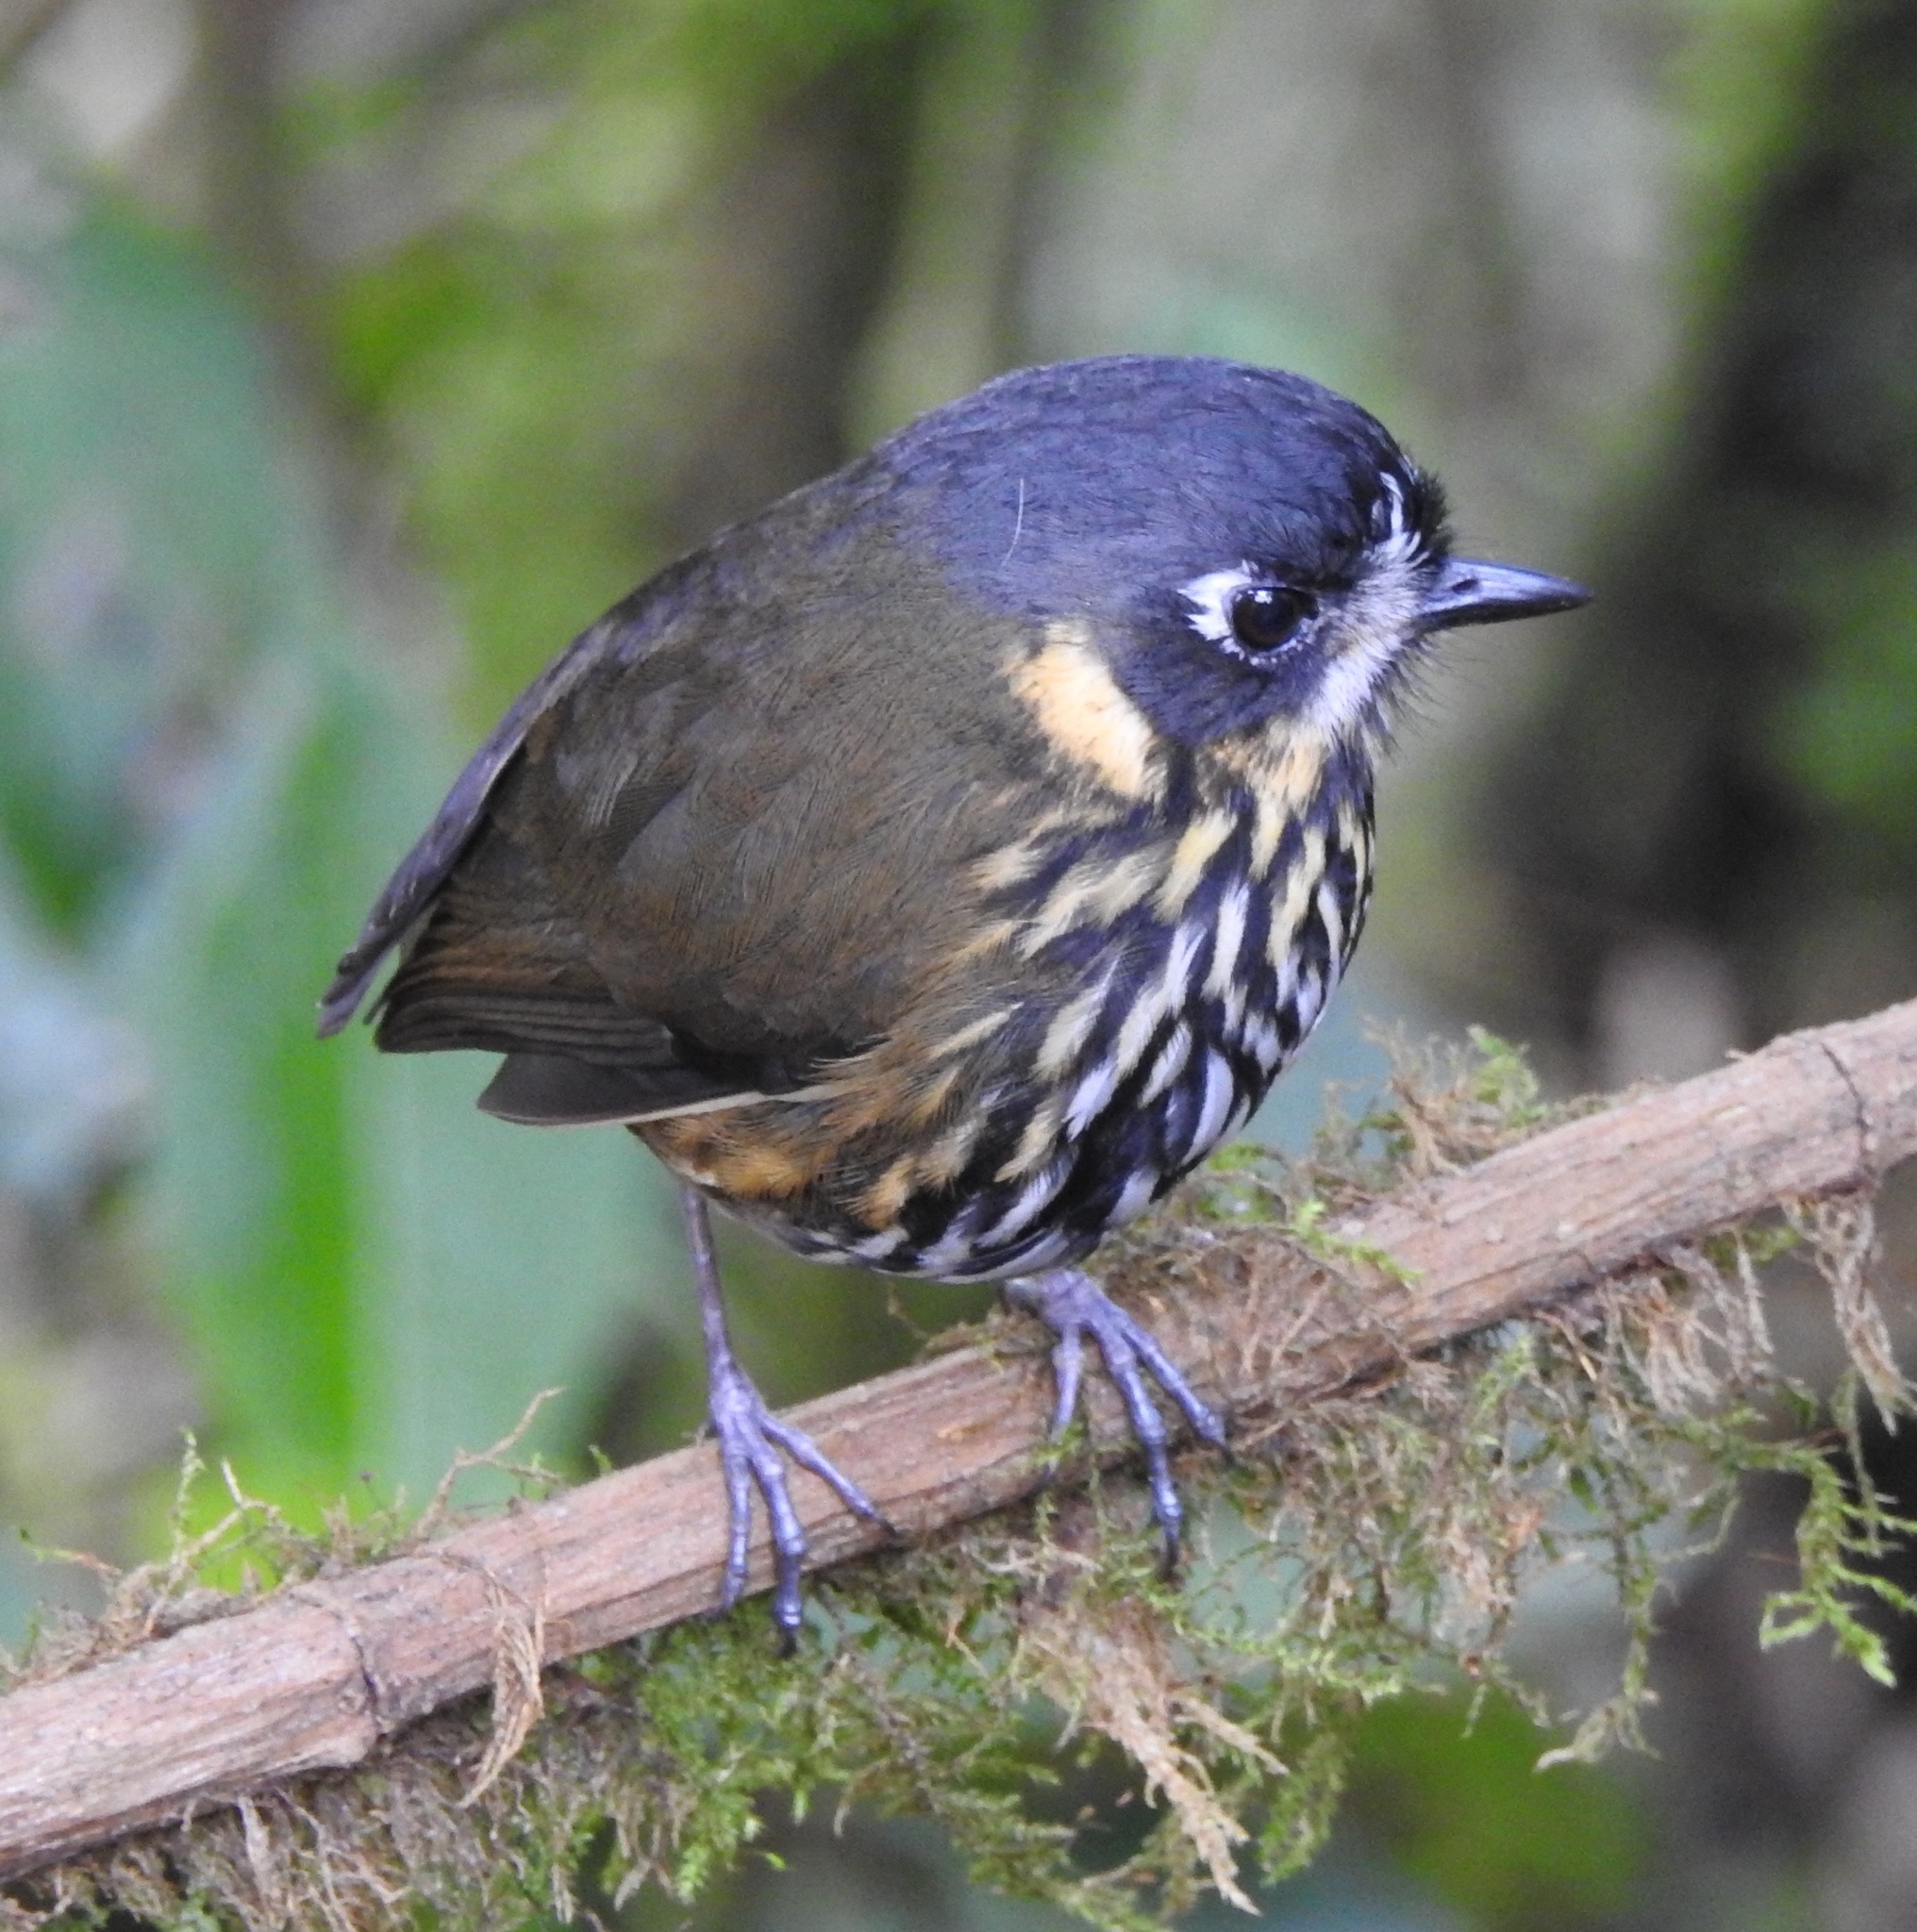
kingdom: Animalia
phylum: Chordata
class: Aves
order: Passeriformes
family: Grallariidae
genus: Grallaricula
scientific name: Grallaricula lineifrons
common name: Crescent-faced antpitta
